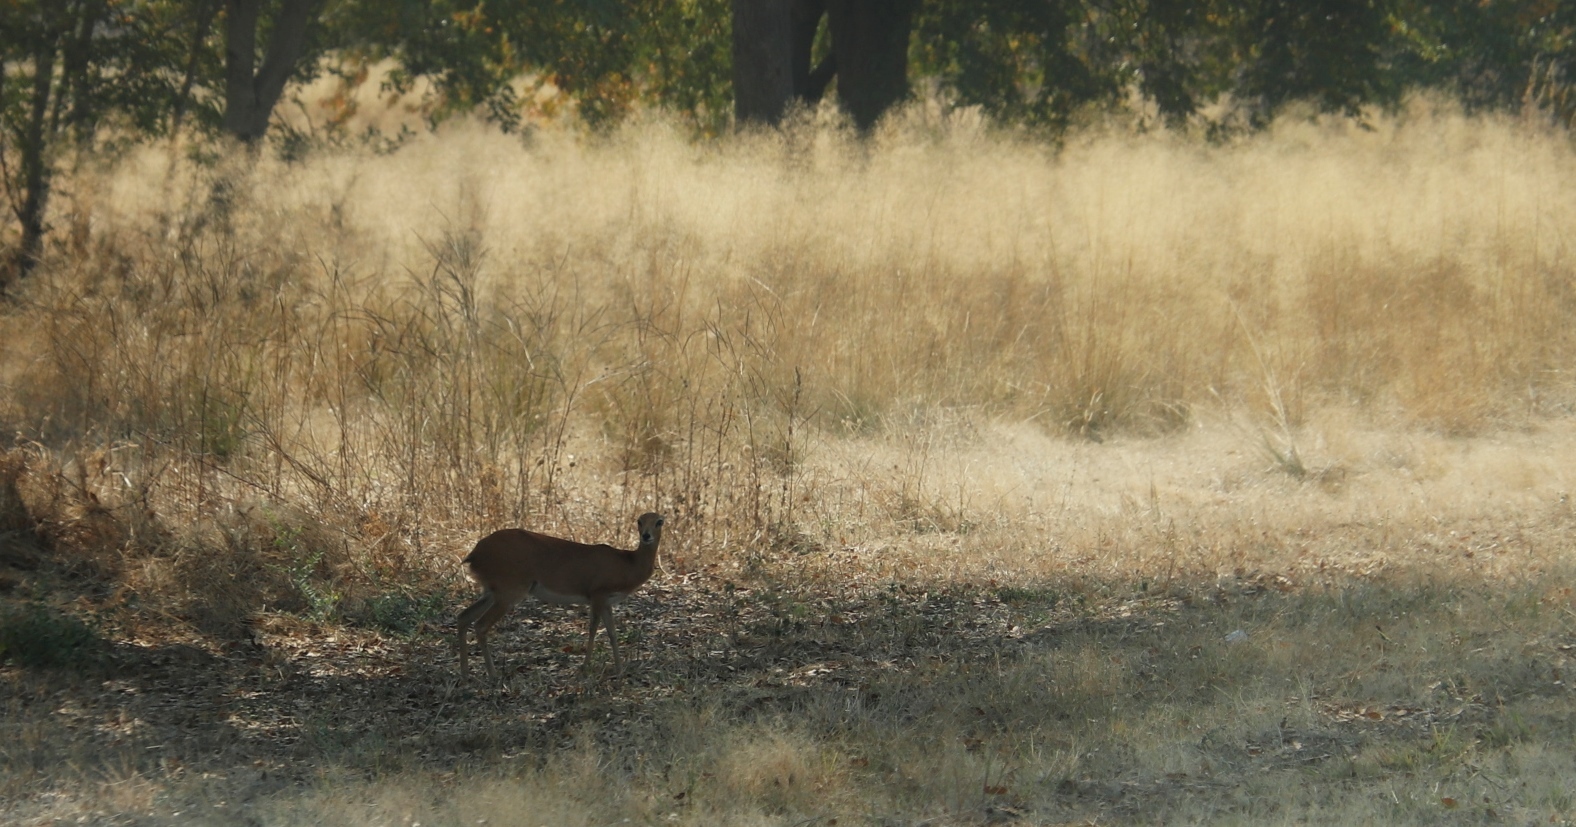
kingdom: Animalia
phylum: Chordata
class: Mammalia
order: Artiodactyla
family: Bovidae
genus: Raphicerus
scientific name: Raphicerus campestris
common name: Steenbok
